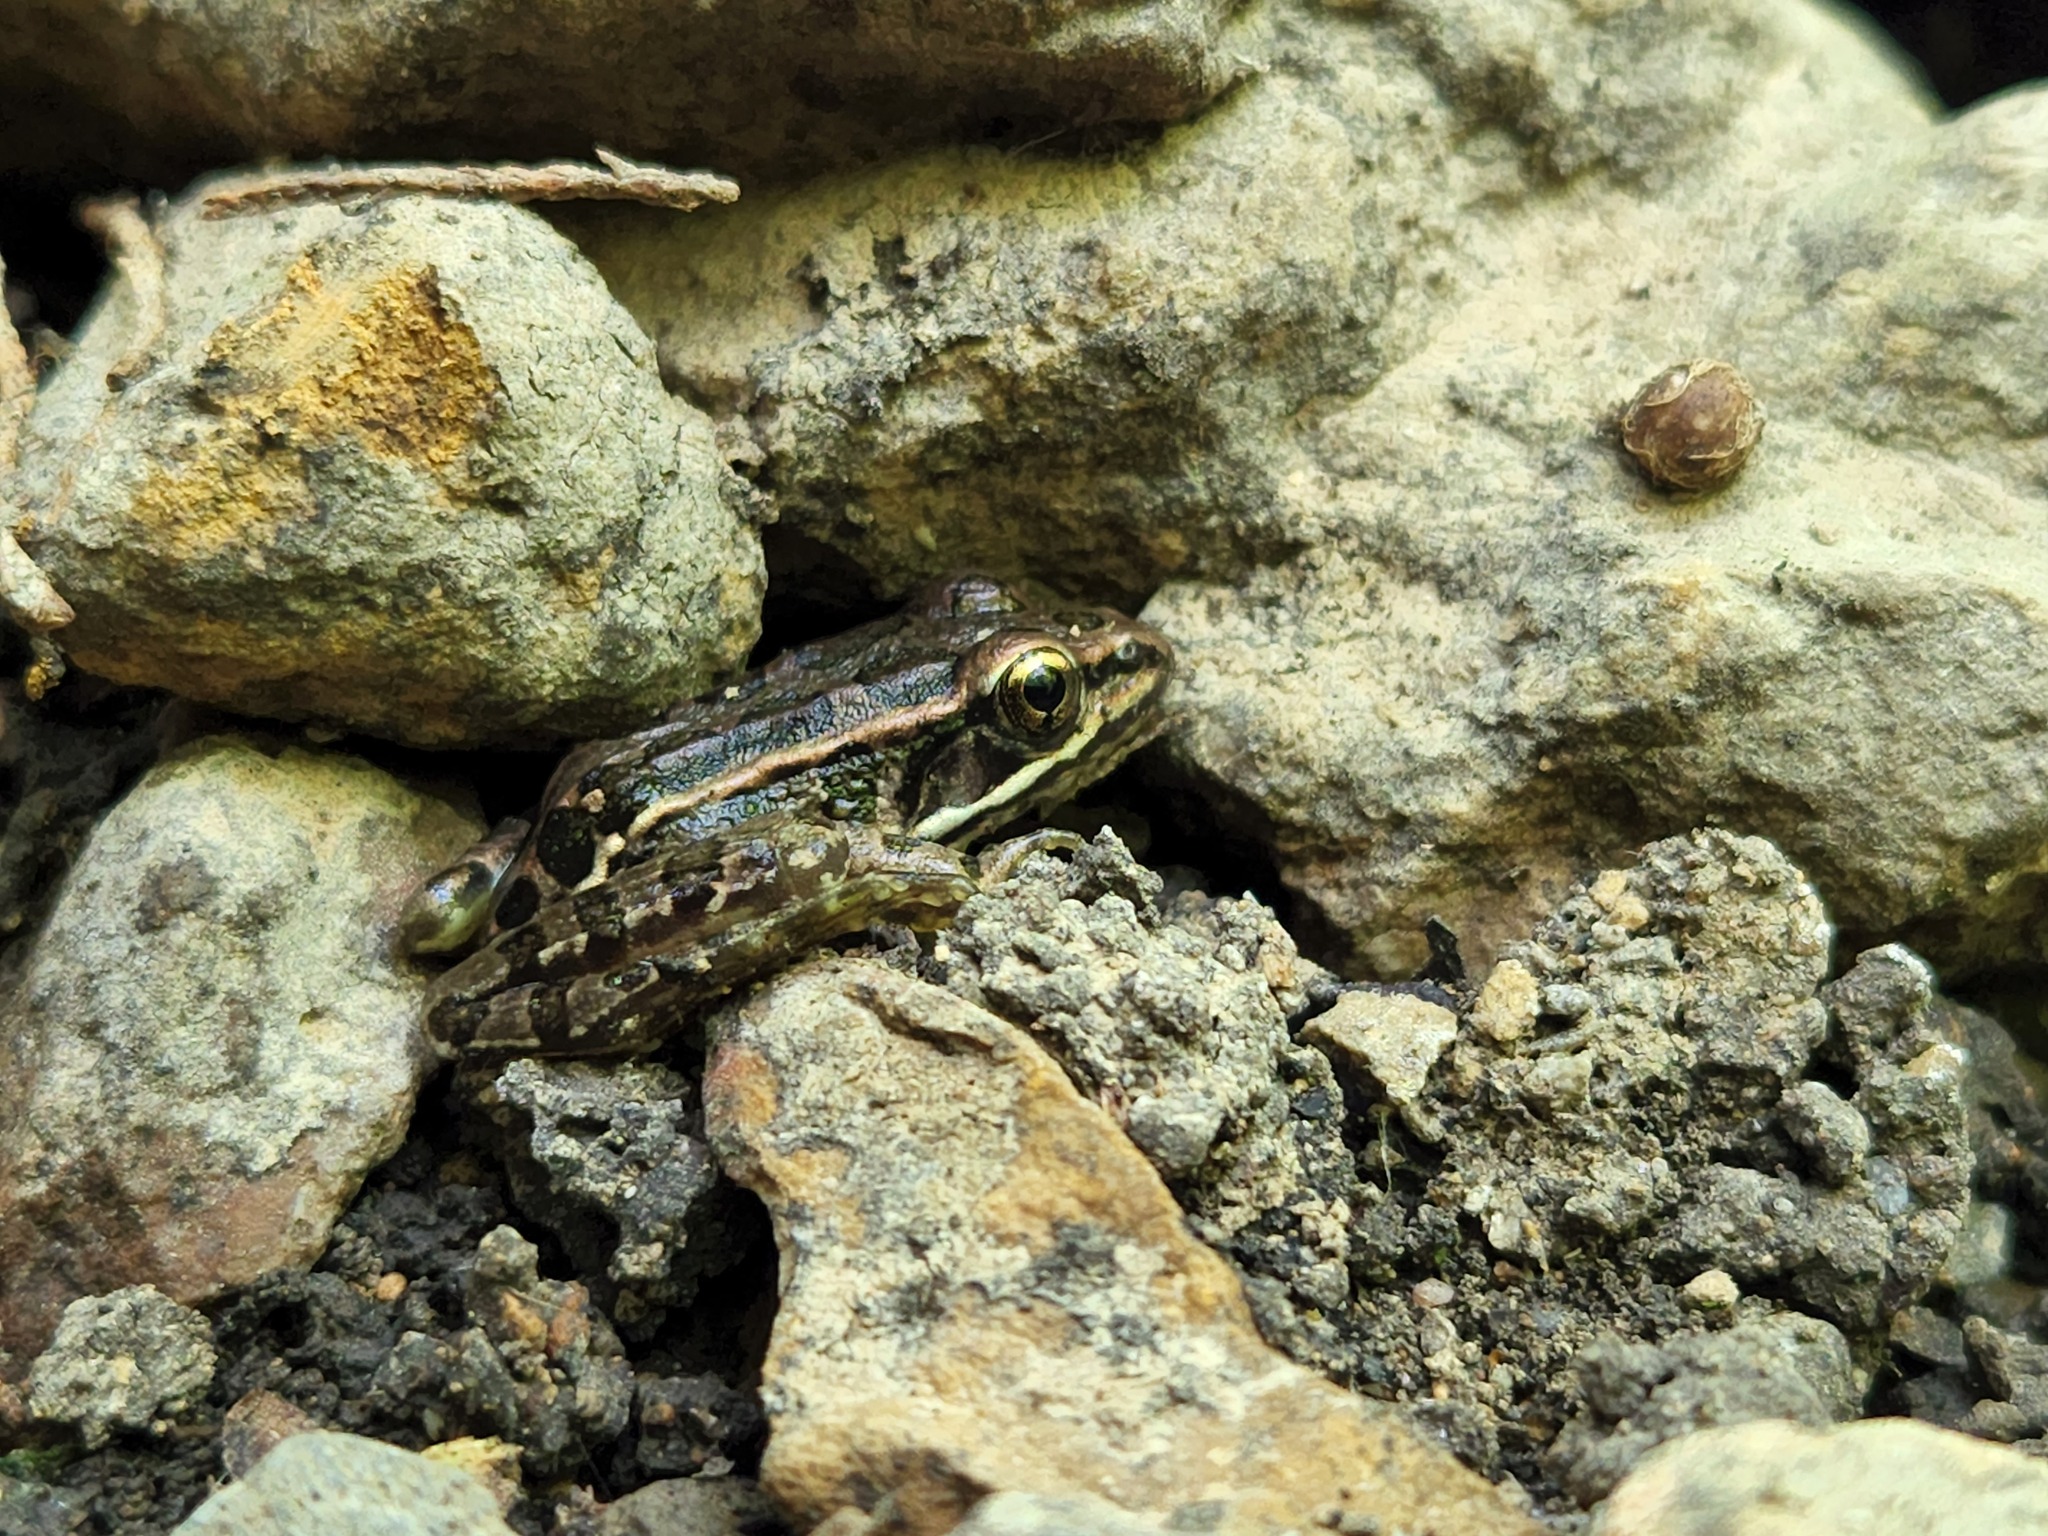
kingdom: Animalia
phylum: Chordata
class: Amphibia
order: Anura
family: Ranidae
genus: Lithobates
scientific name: Lithobates palustris
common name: Pickerel frog
